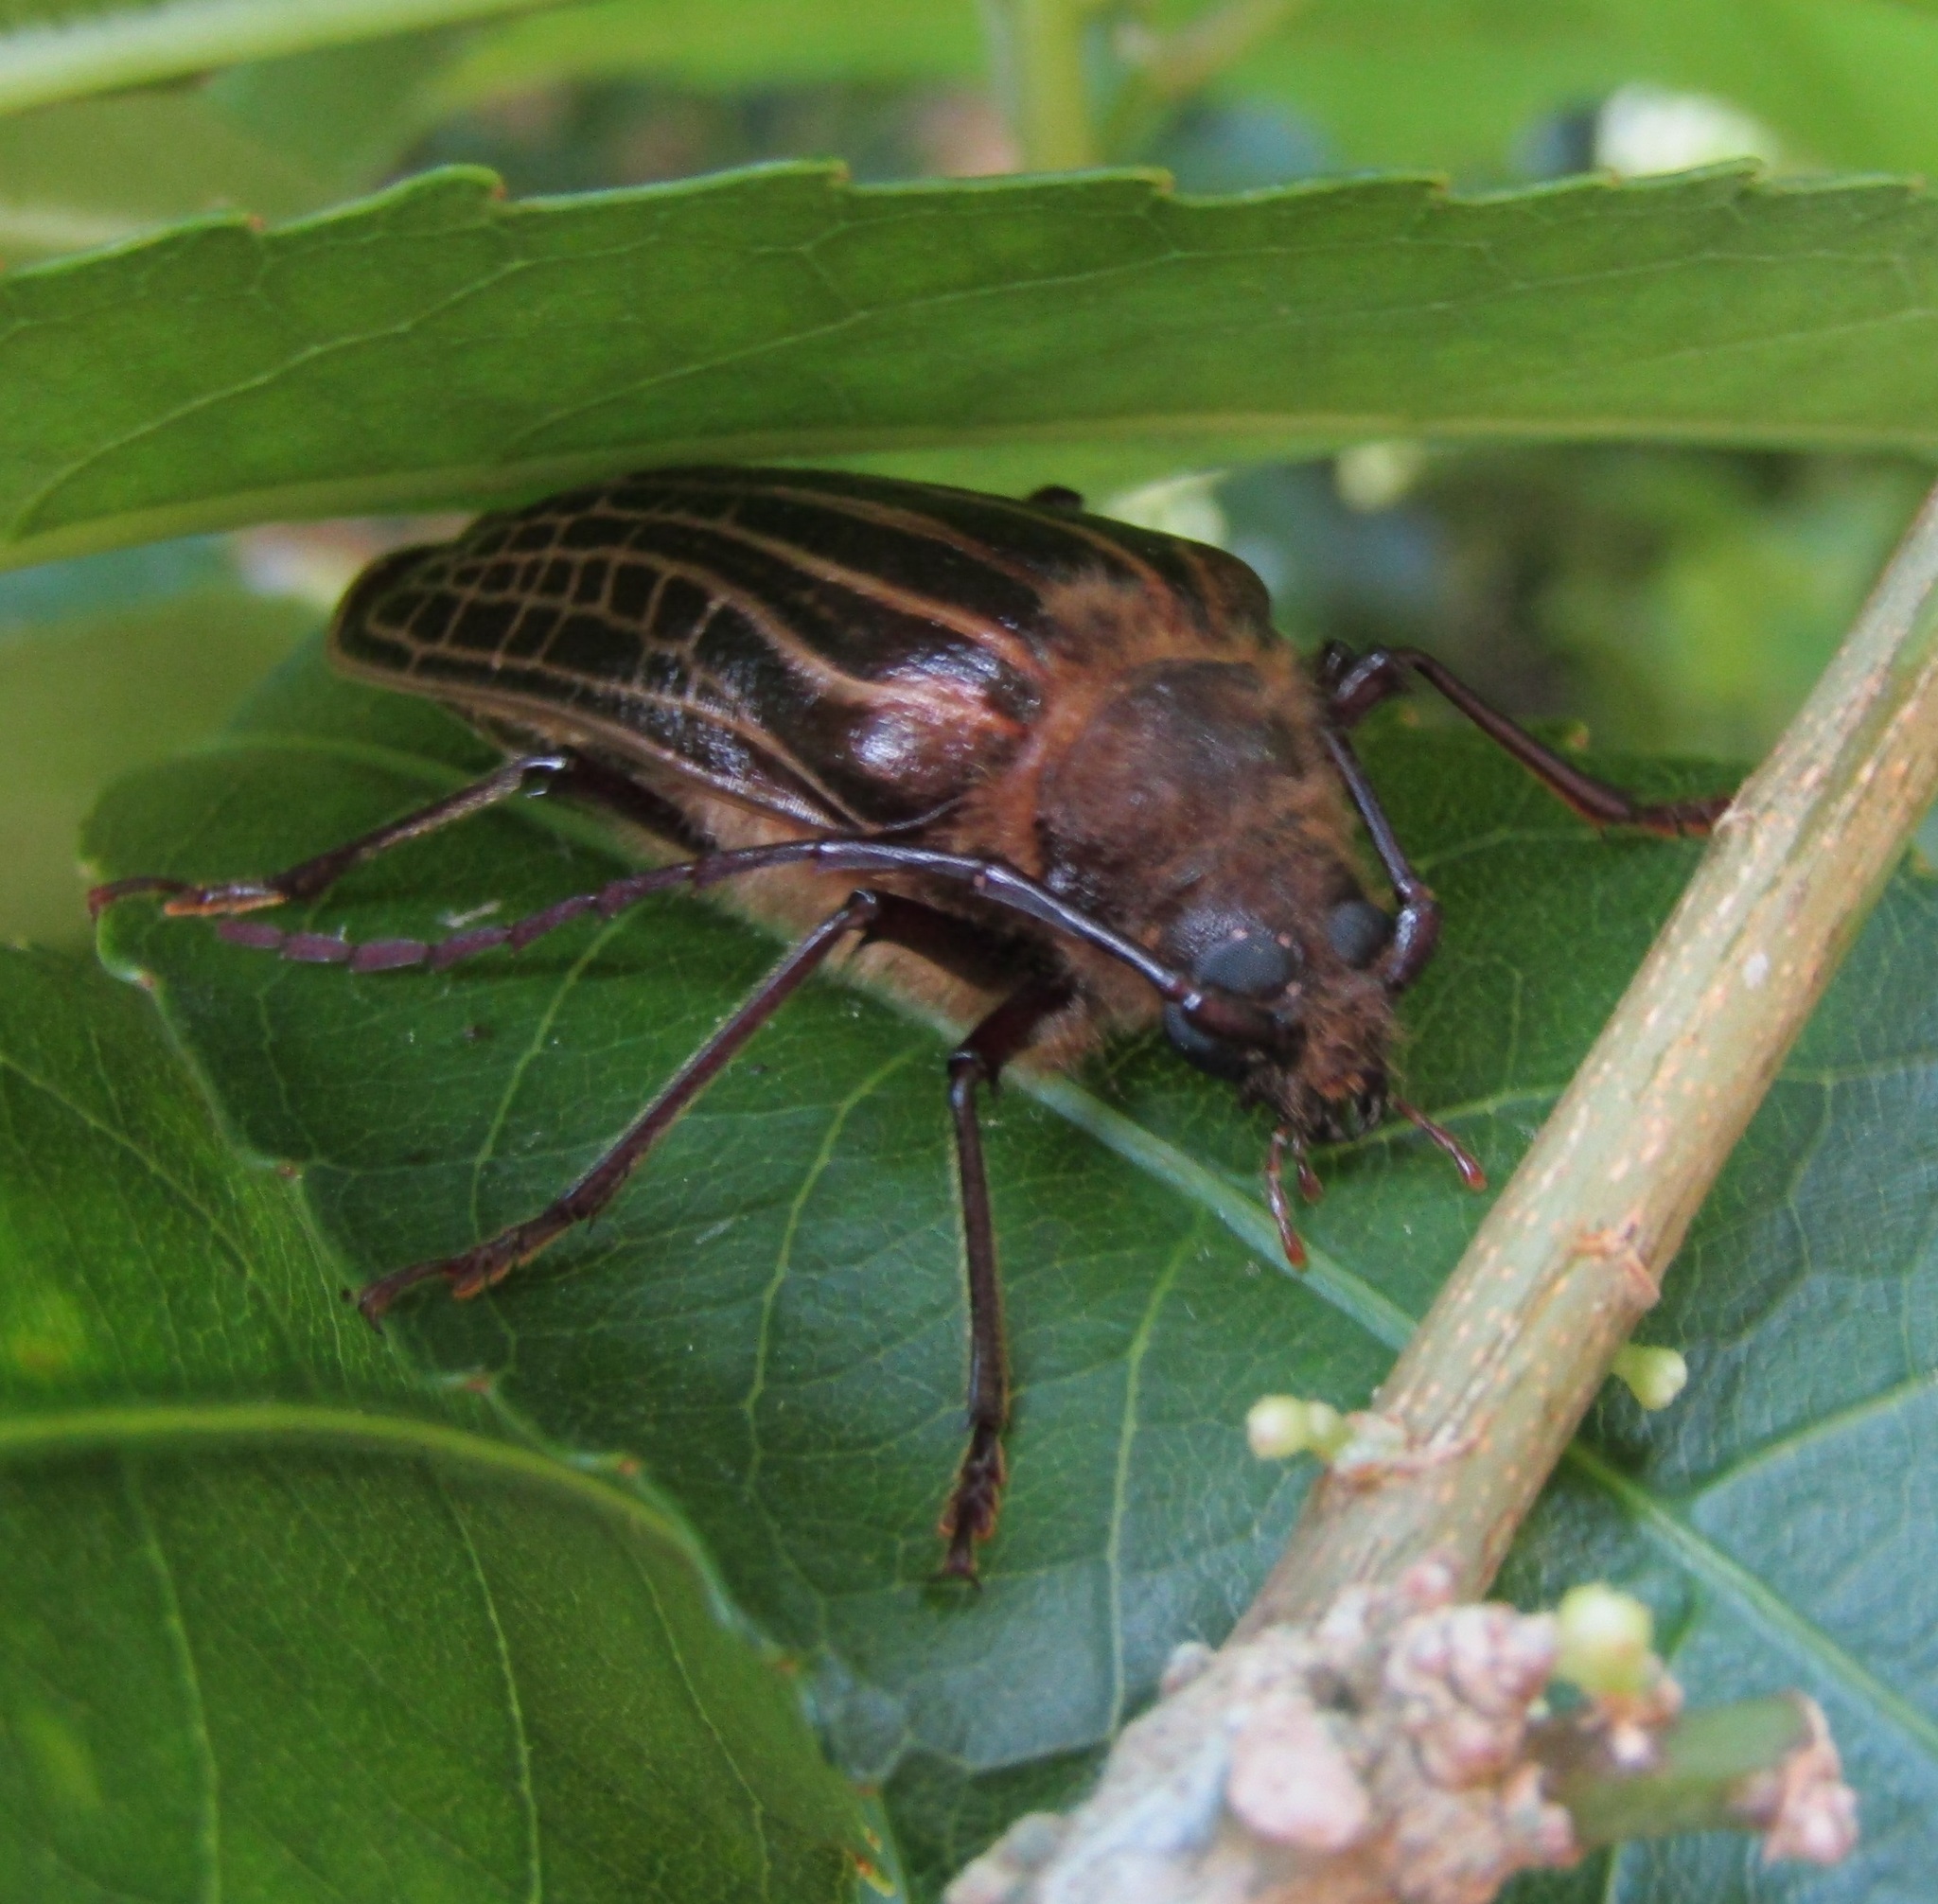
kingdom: Animalia
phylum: Arthropoda
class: Insecta
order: Coleoptera
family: Cerambycidae
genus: Prionoplus
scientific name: Prionoplus reticularis
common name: Huhu beetle
